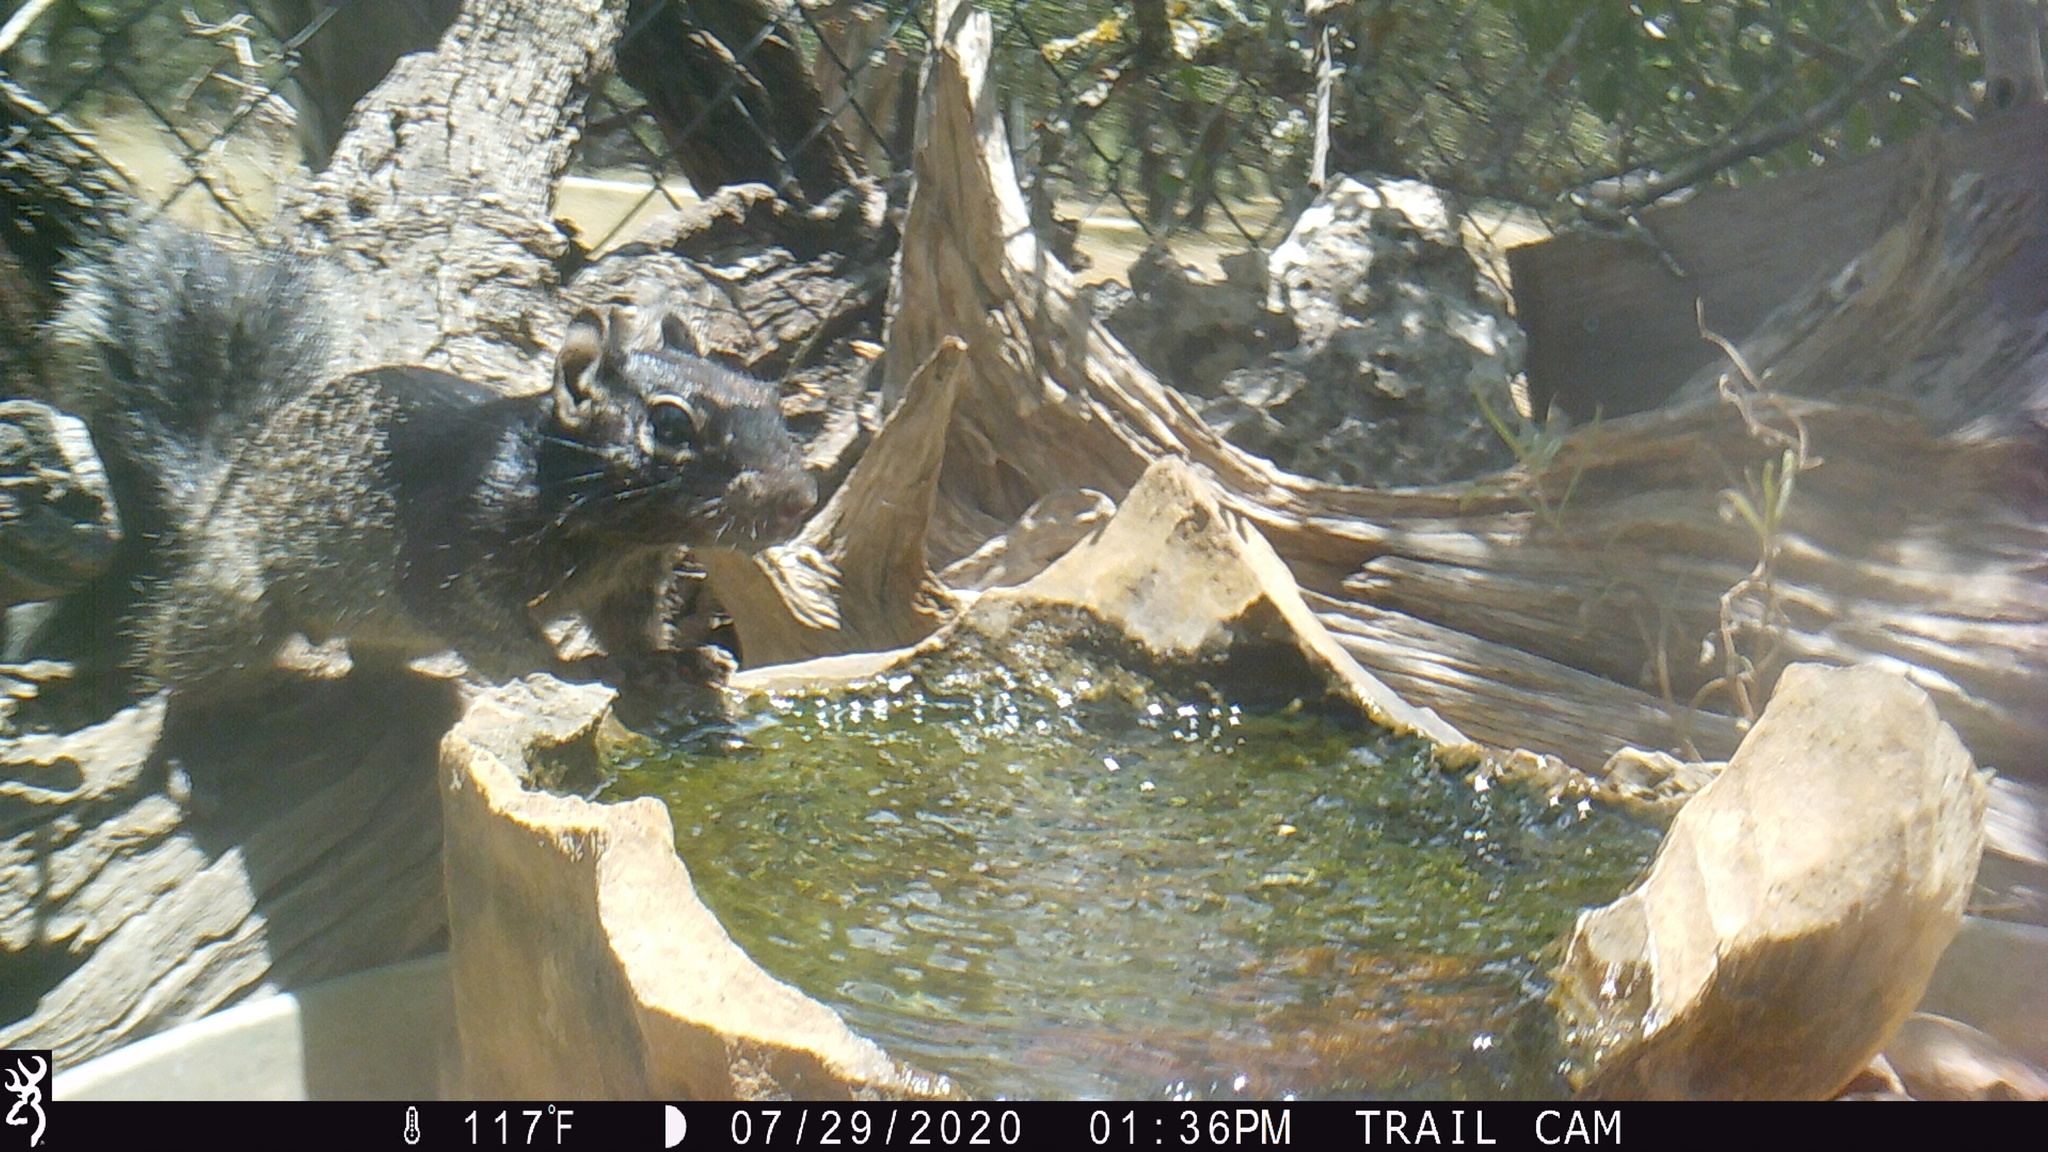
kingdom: Animalia
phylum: Chordata
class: Mammalia
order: Rodentia
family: Sciuridae
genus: Otospermophilus
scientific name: Otospermophilus variegatus
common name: Rock squirrel
